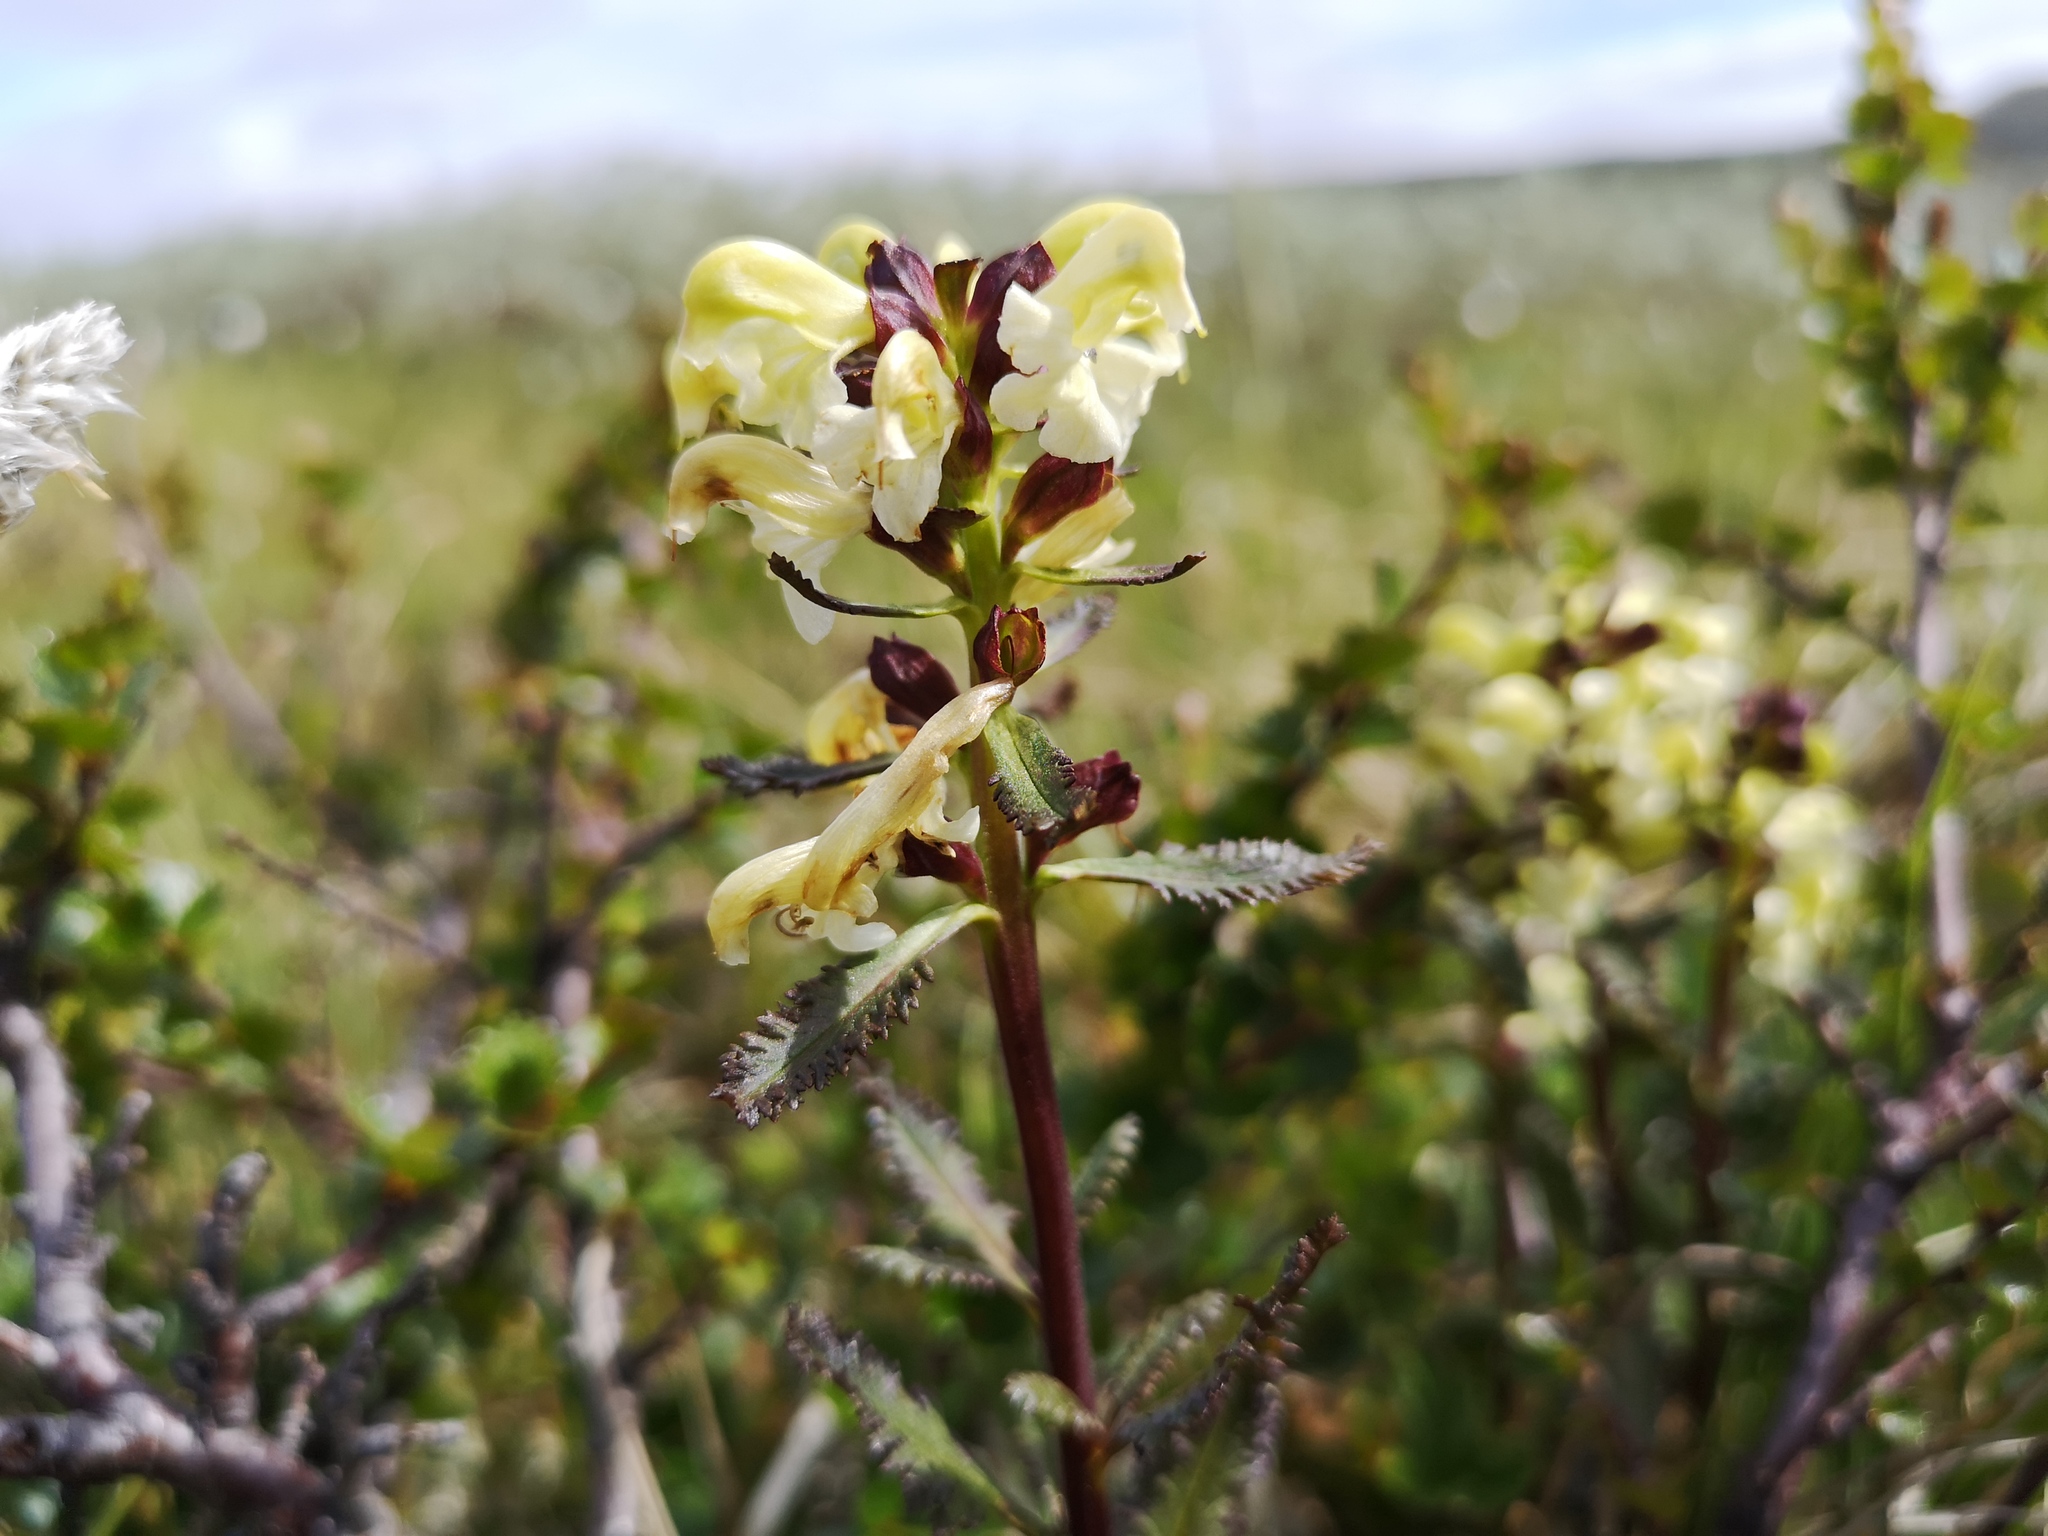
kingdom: Plantae
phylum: Tracheophyta
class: Magnoliopsida
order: Lamiales
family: Orobanchaceae
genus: Pedicularis
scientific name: Pedicularis lapponica
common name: Lapland lousewort
